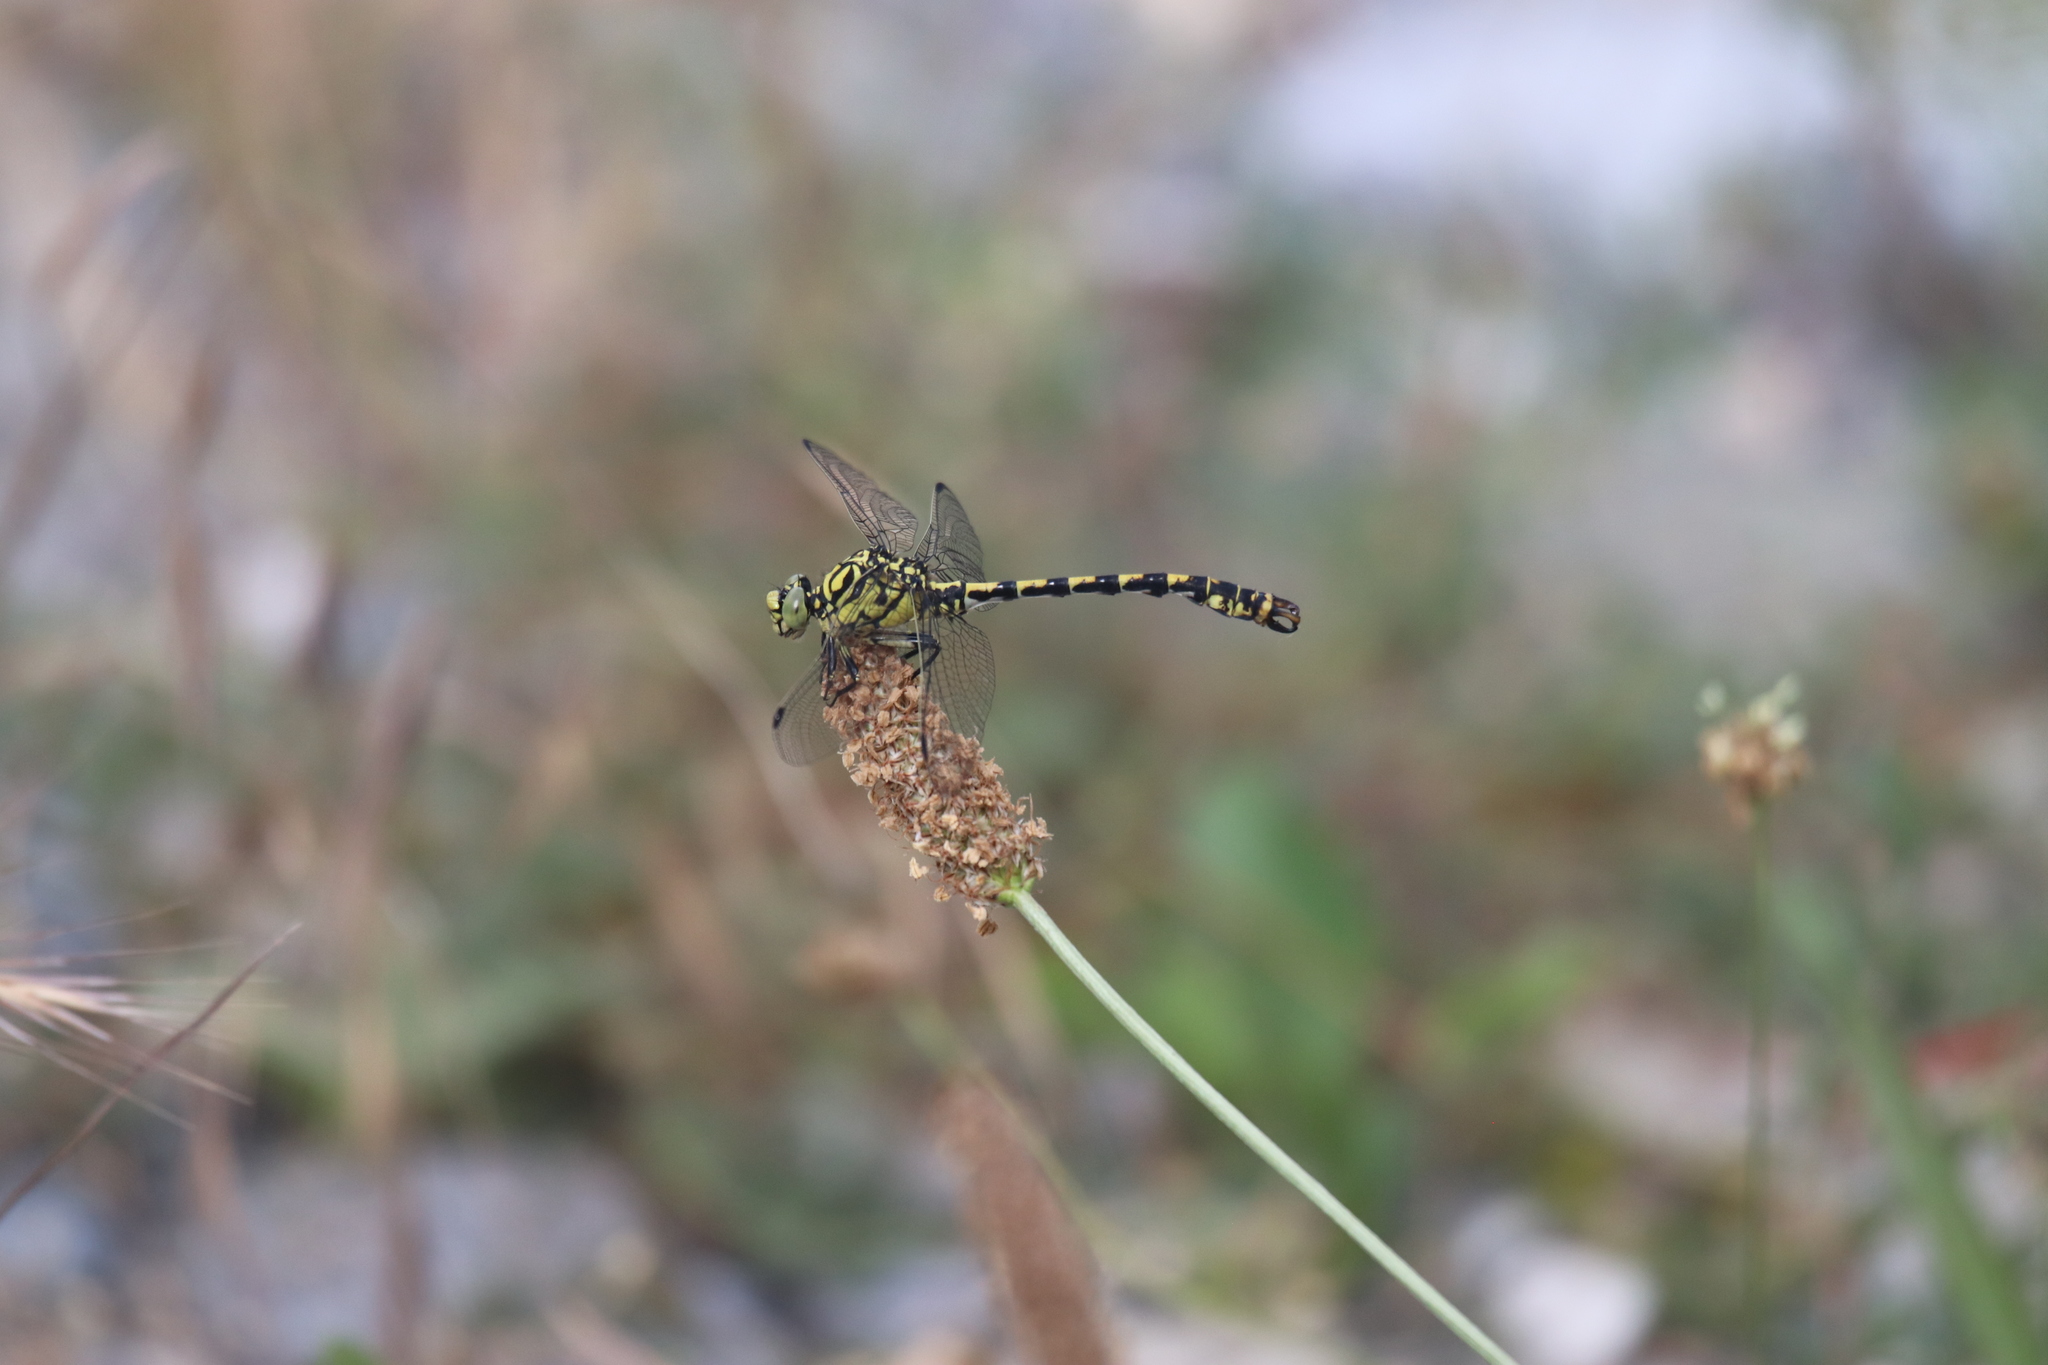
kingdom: Animalia
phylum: Arthropoda
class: Insecta
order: Odonata
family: Gomphidae
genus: Onychogomphus
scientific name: Onychogomphus forcipatus
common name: Small pincertail
